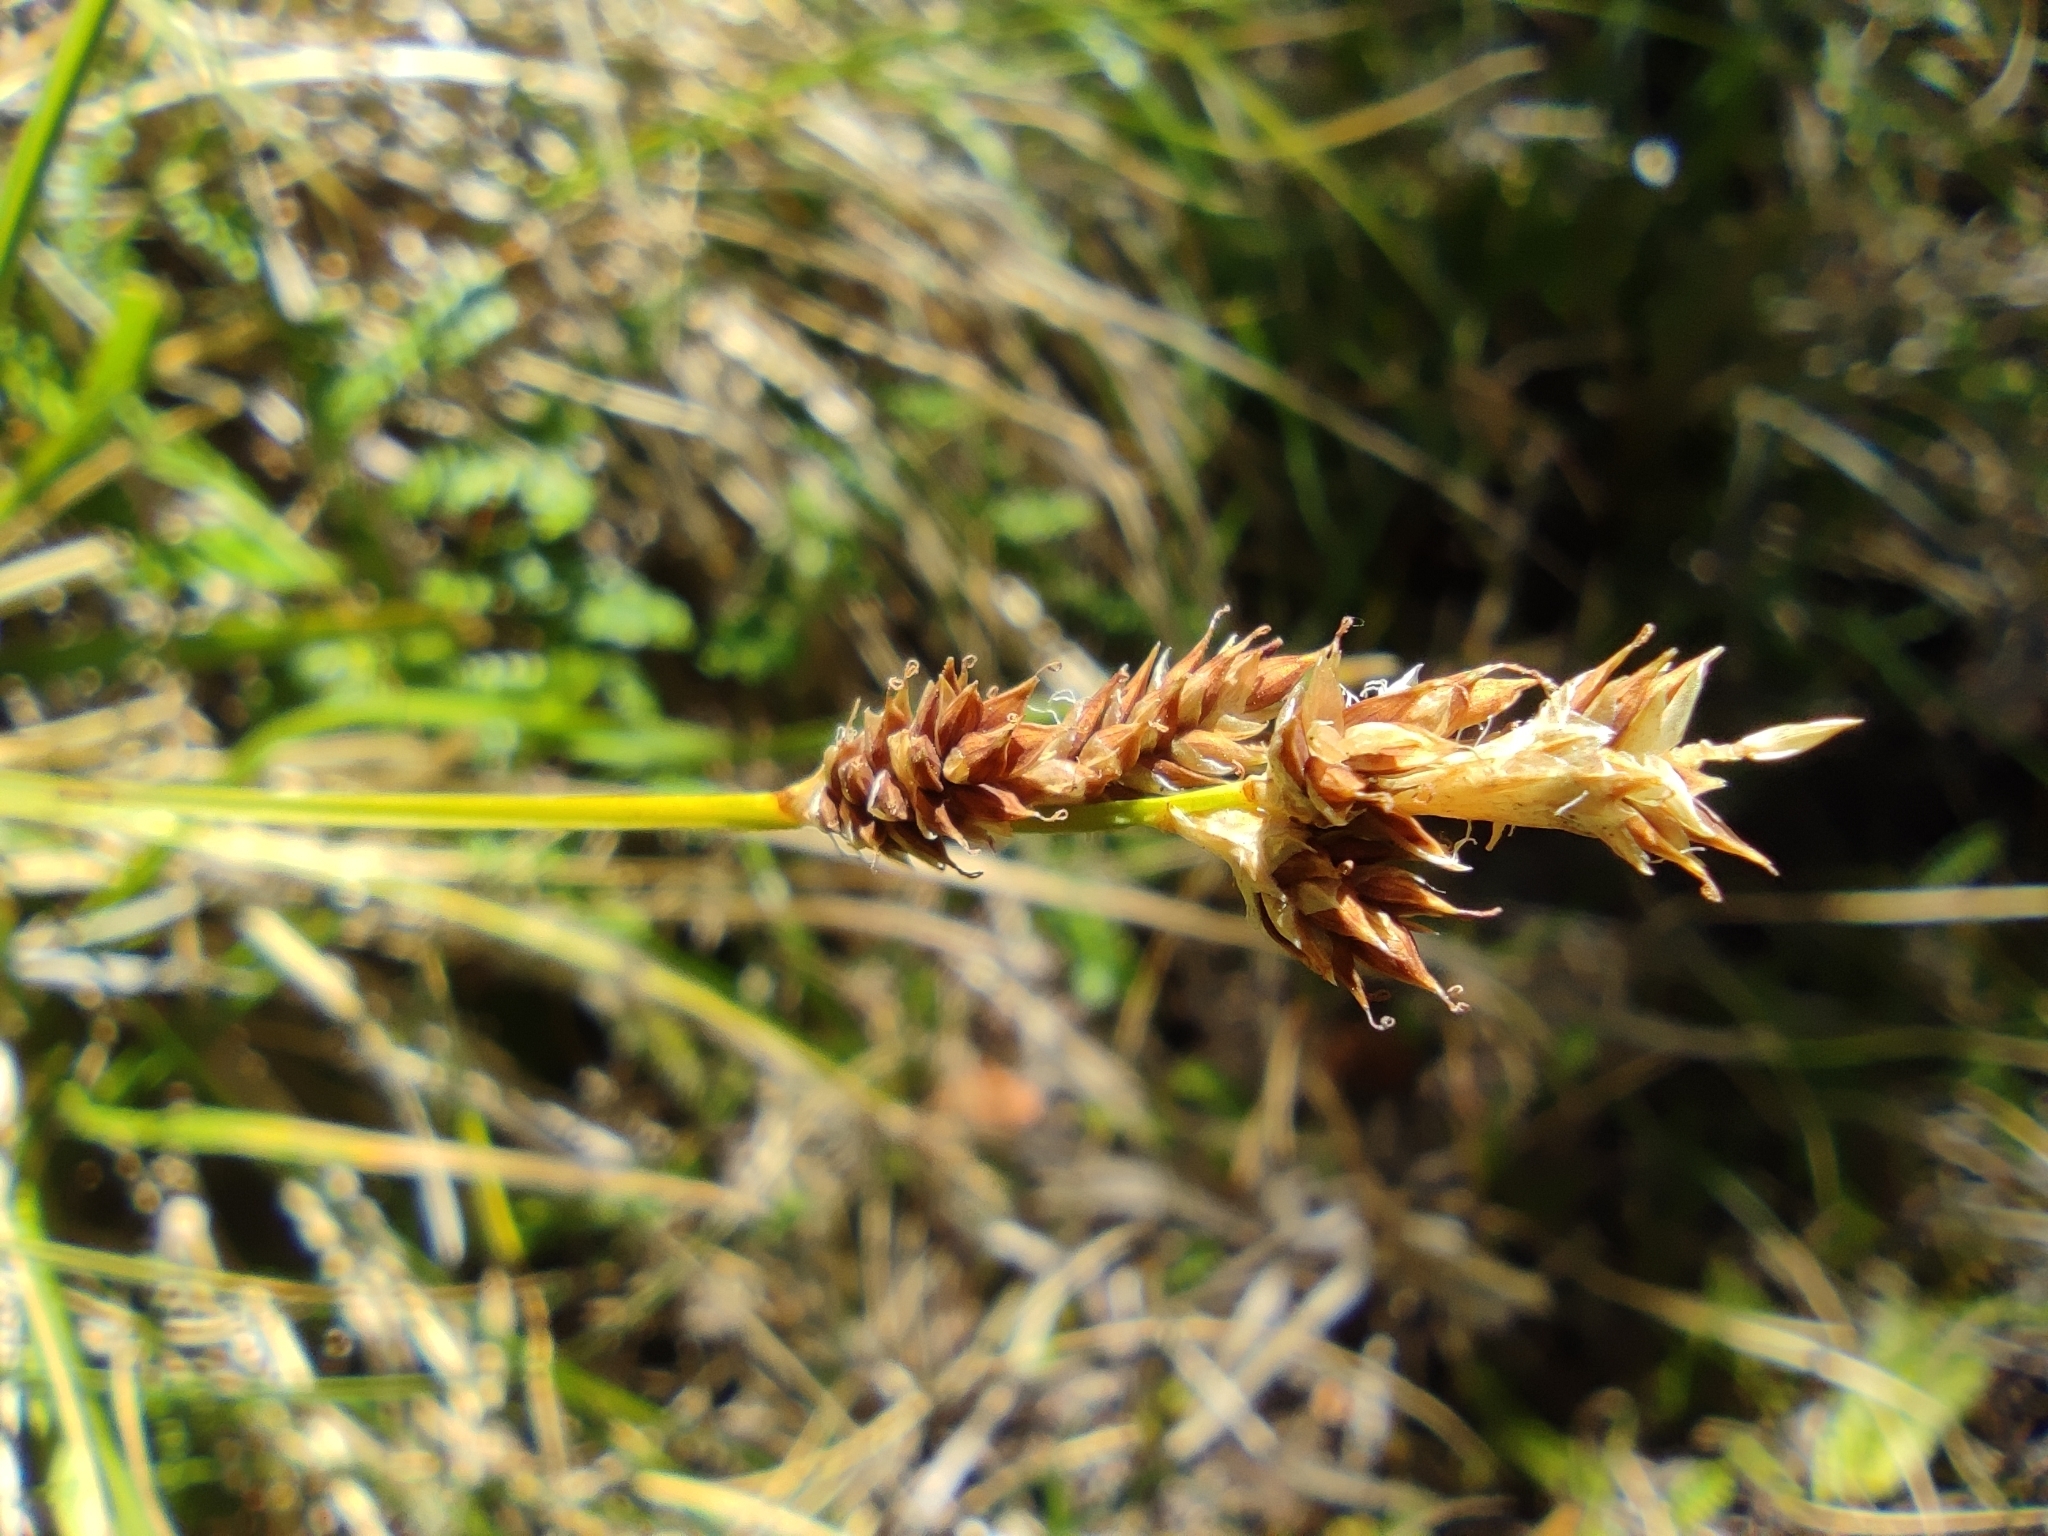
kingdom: Plantae
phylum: Tracheophyta
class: Liliopsida
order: Poales
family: Cyperaceae
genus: Carex
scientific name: Carex canescens
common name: White sedge
